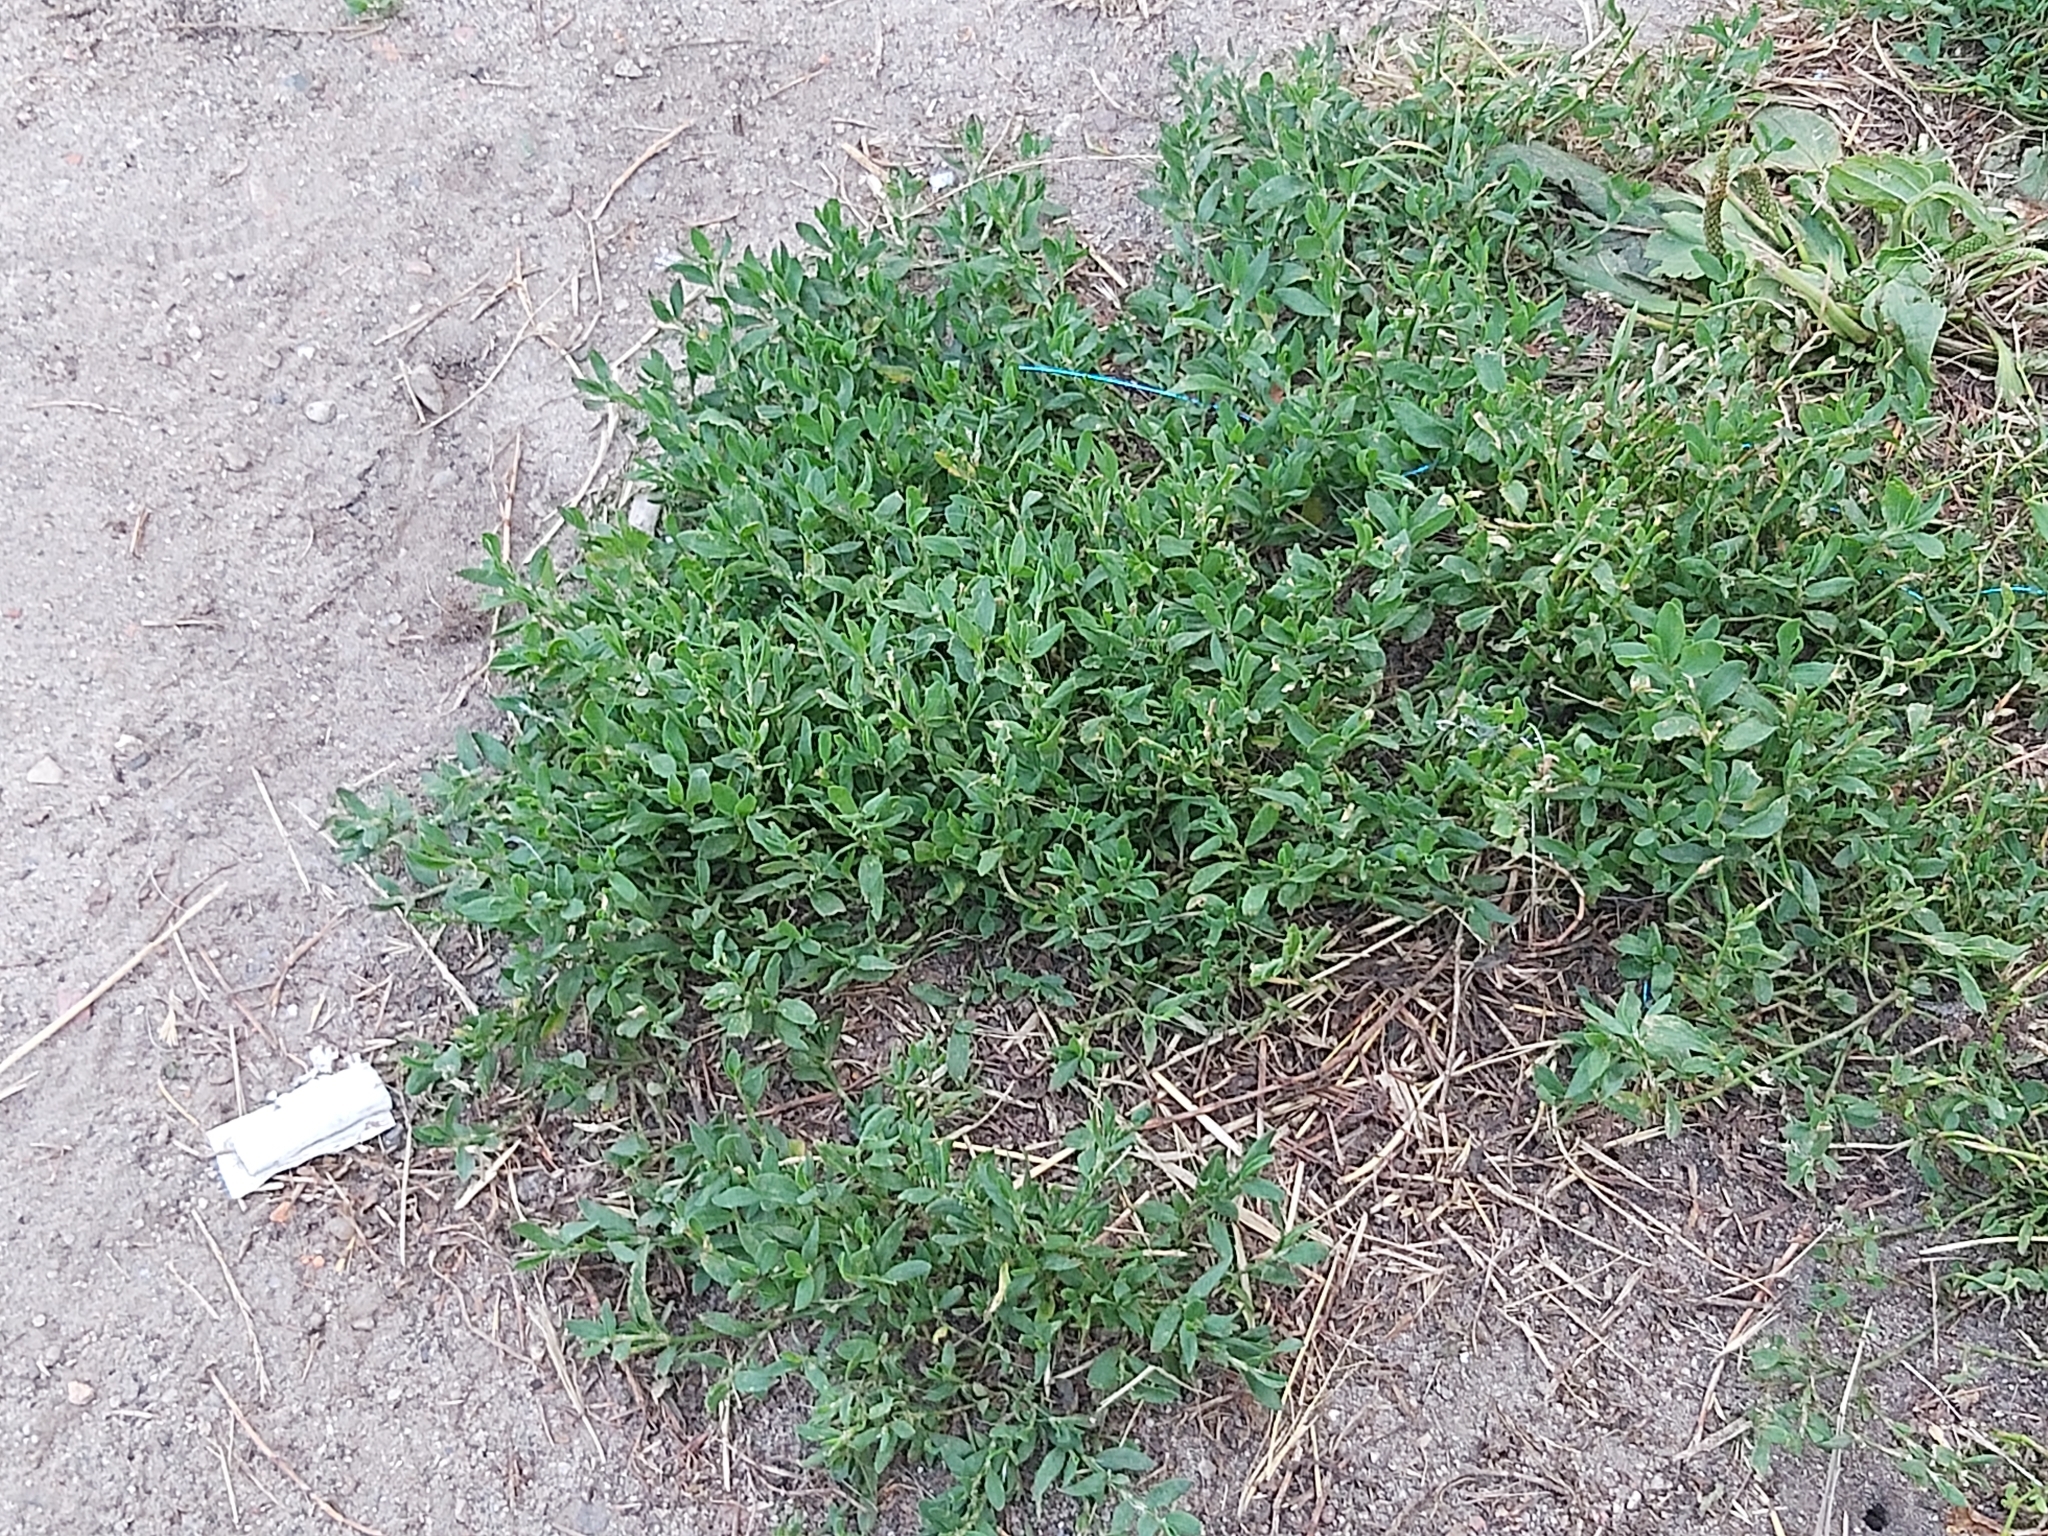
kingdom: Plantae
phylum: Tracheophyta
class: Magnoliopsida
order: Caryophyllales
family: Polygonaceae
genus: Polygonum
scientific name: Polygonum aviculare
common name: Prostrate knotweed
